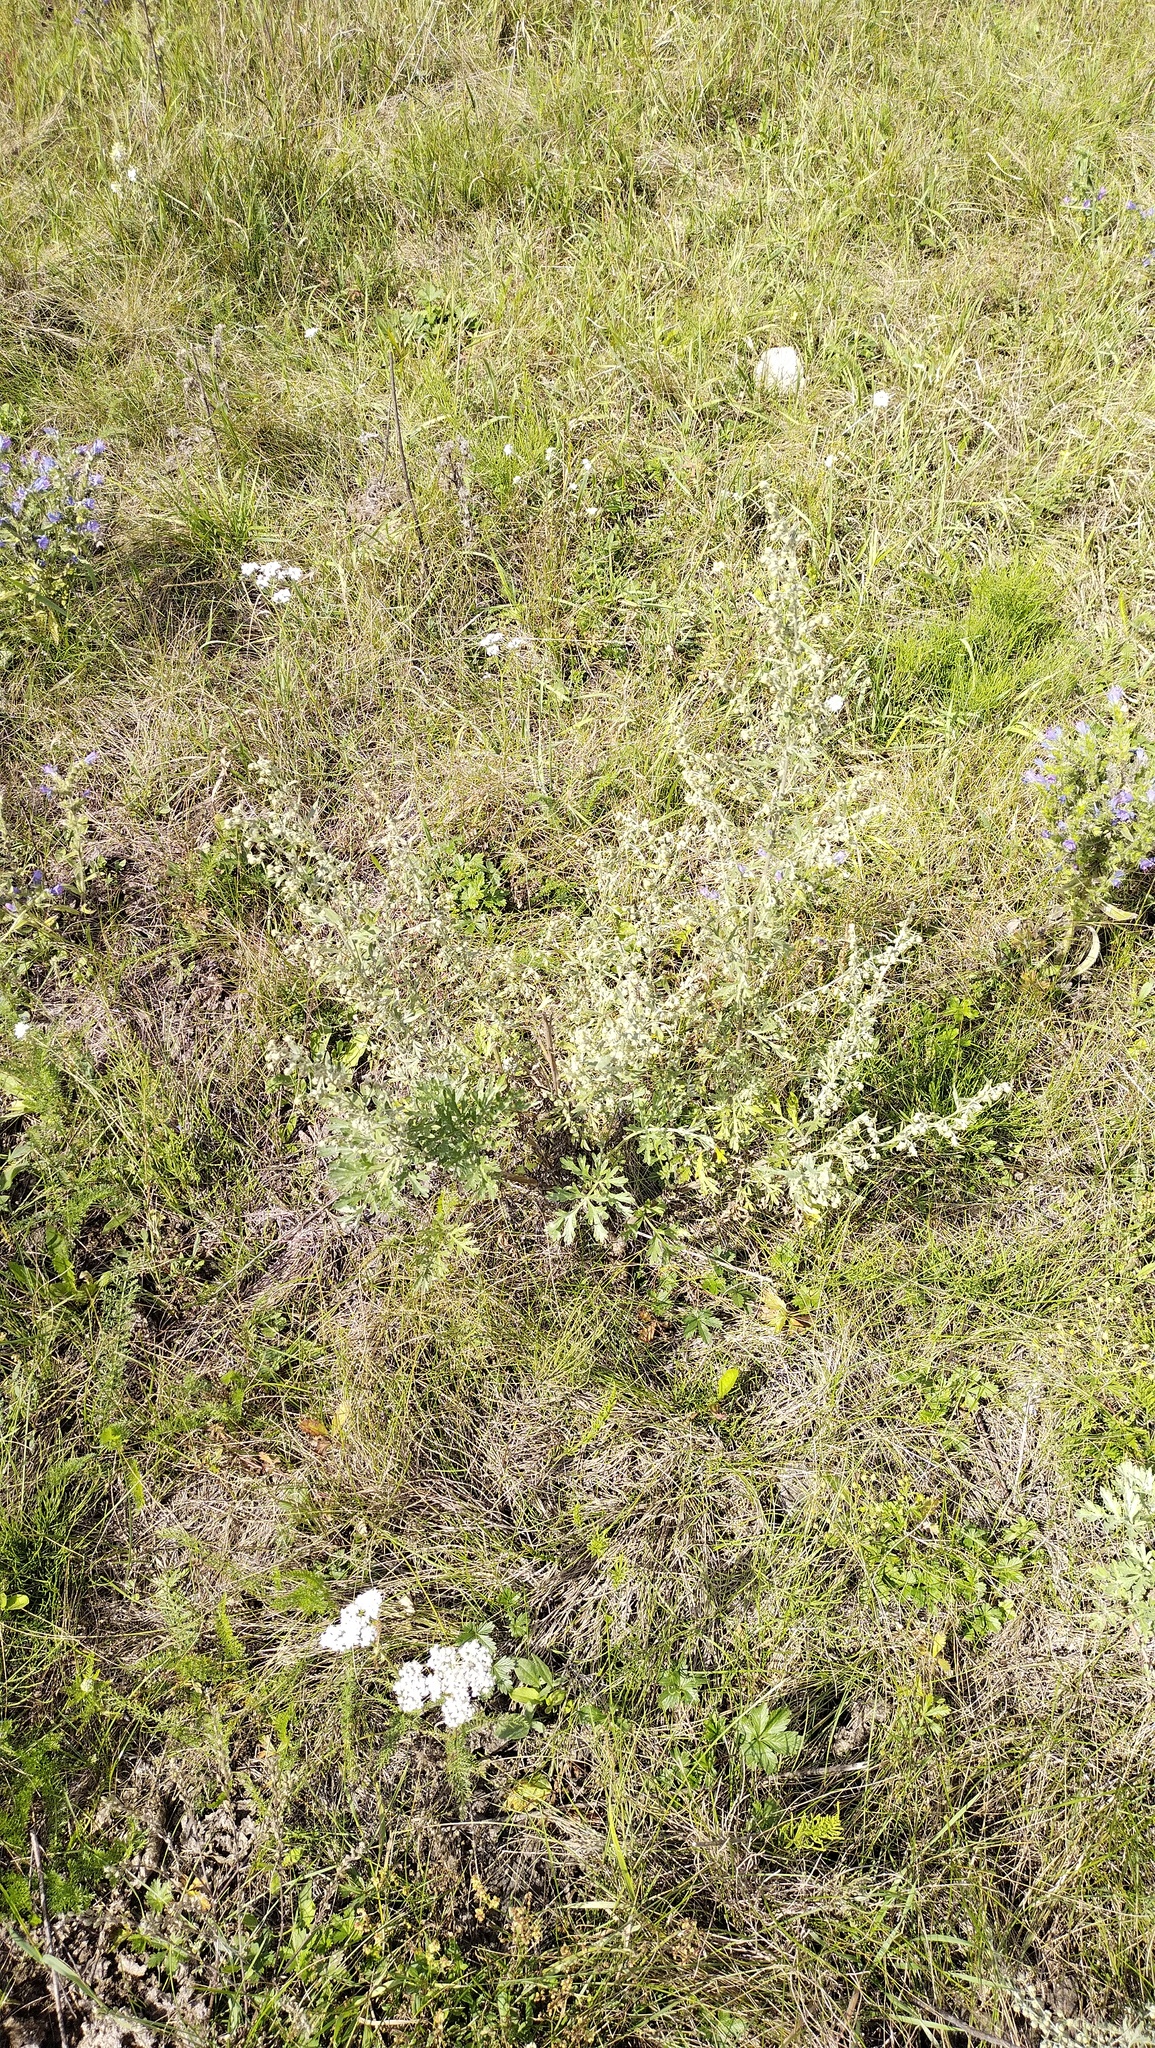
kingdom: Plantae
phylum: Tracheophyta
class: Magnoliopsida
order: Asterales
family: Asteraceae
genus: Artemisia
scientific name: Artemisia absinthium
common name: Wormwood
